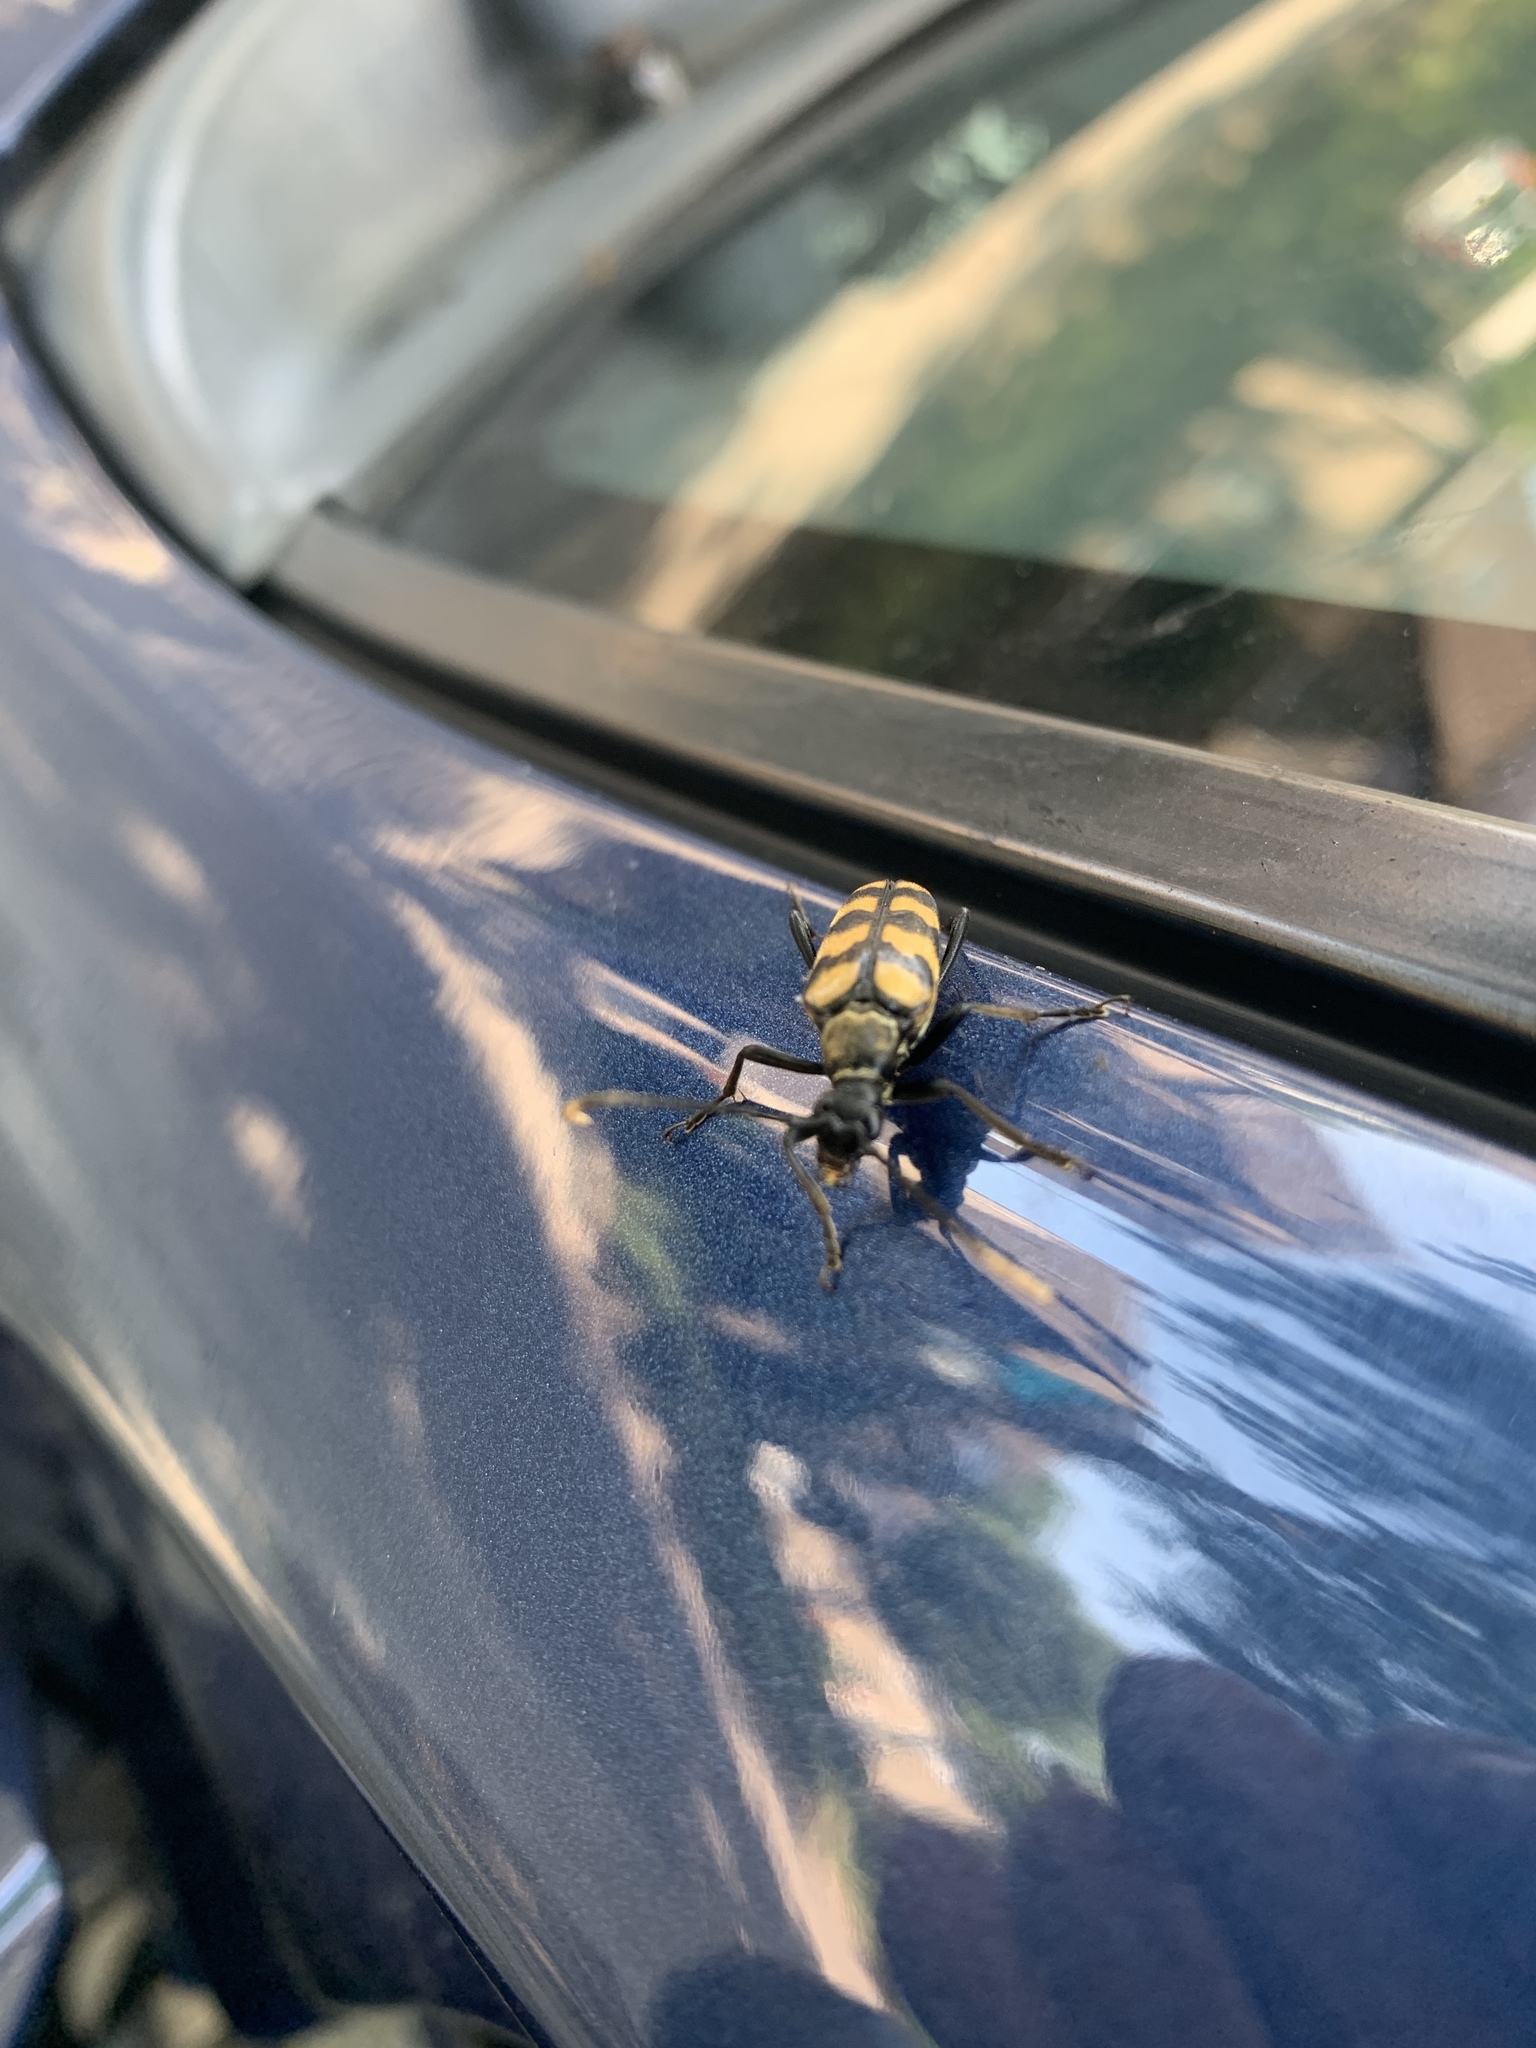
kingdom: Animalia
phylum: Arthropoda
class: Insecta
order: Coleoptera
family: Cerambycidae
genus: Leptura
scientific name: Leptura quadrifasciata
